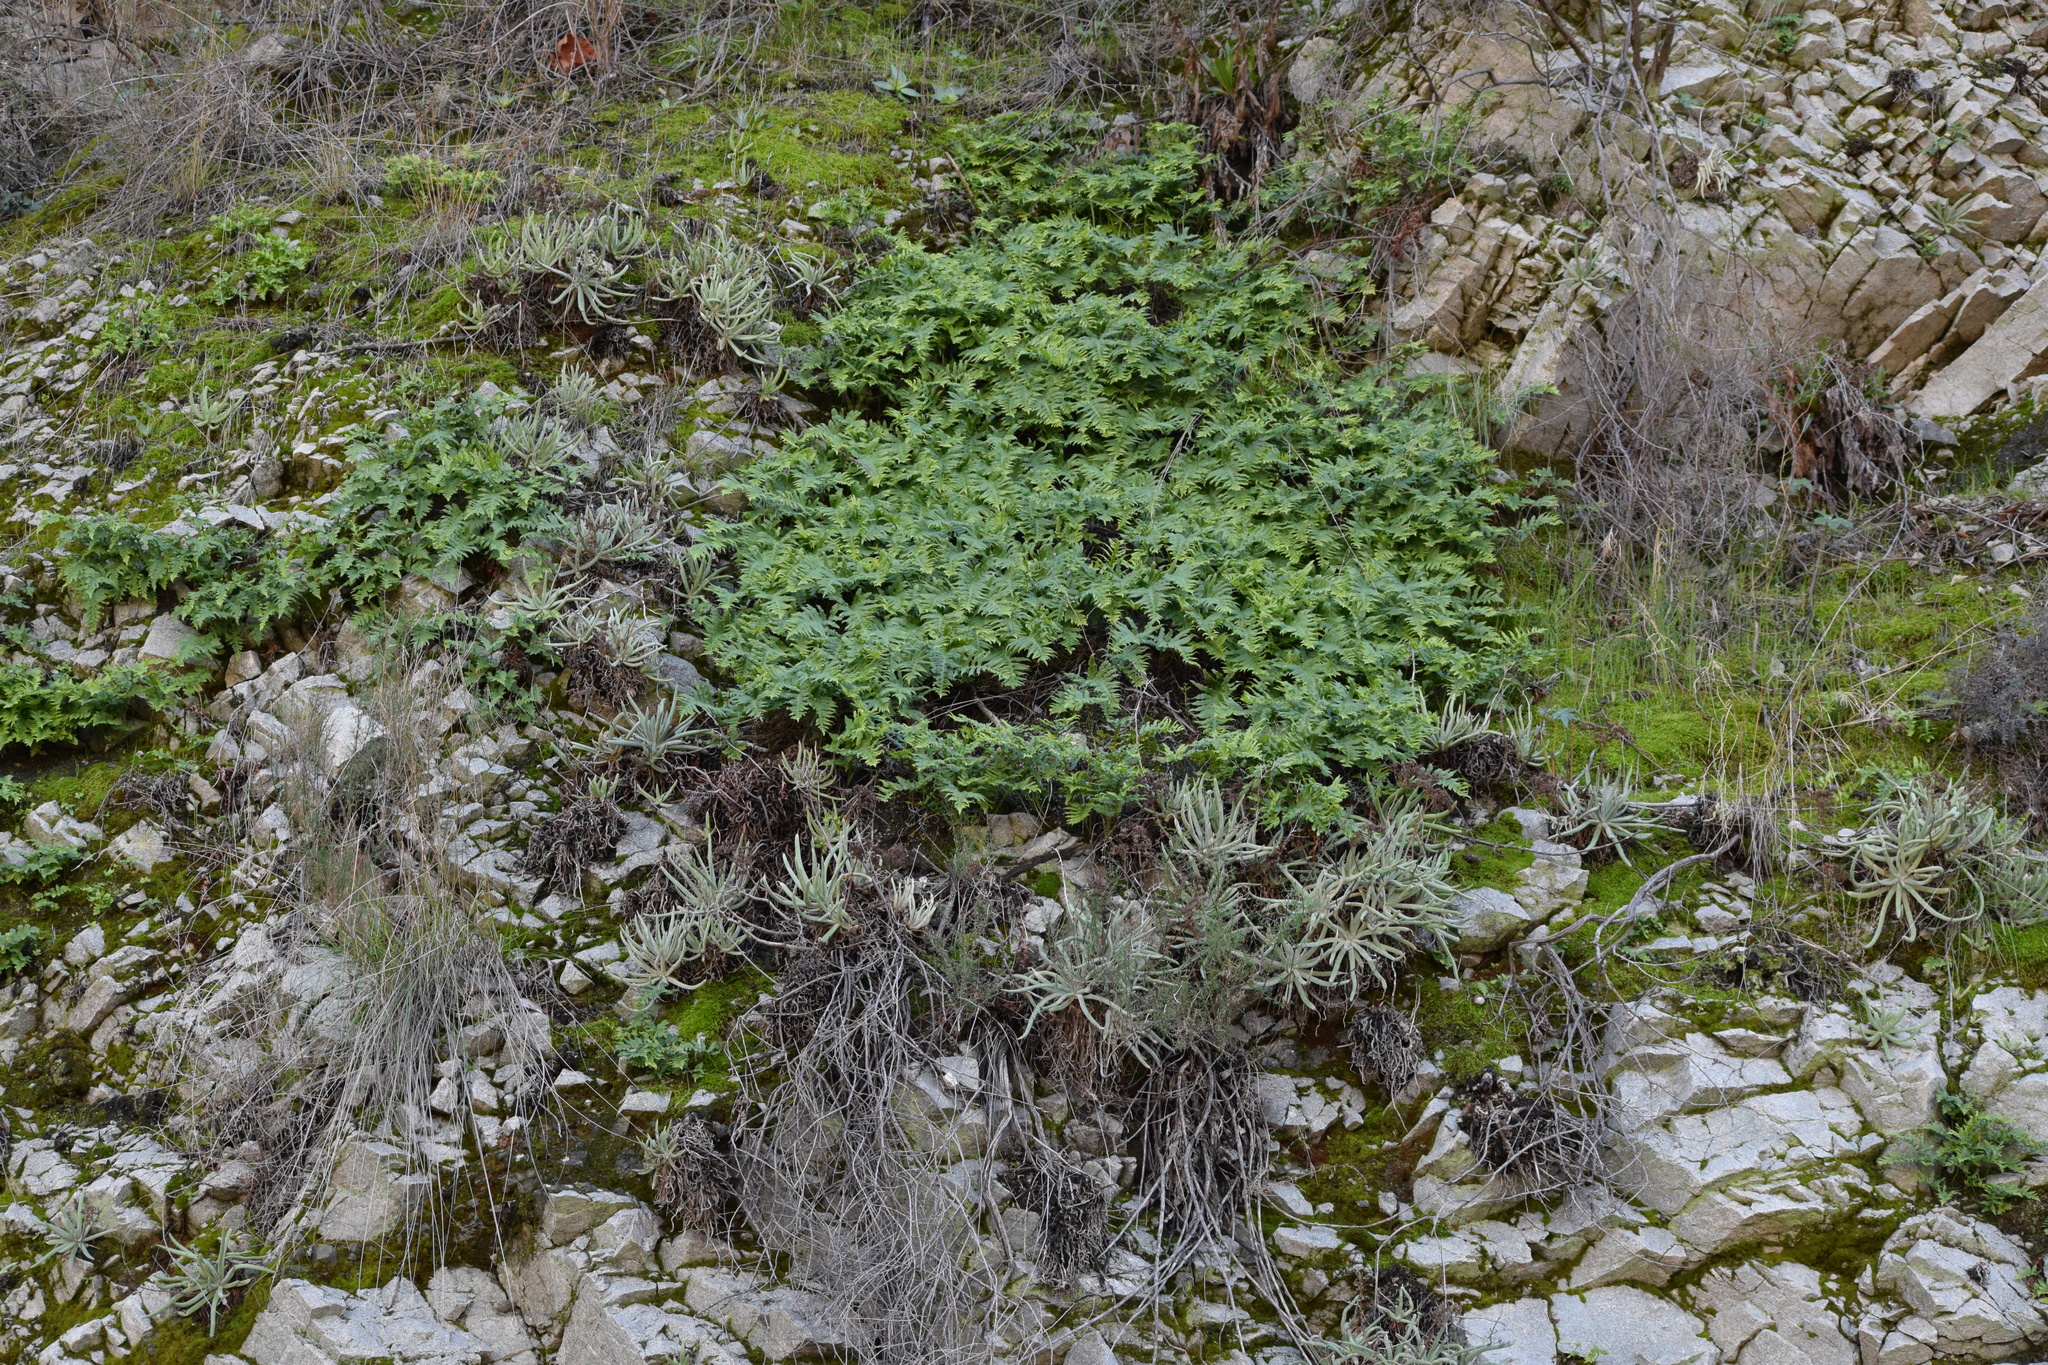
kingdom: Plantae
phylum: Tracheophyta
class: Magnoliopsida
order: Saxifragales
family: Crassulaceae
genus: Dudleya
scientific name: Dudleya densiflora
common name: San gabriel mountains dudleya
